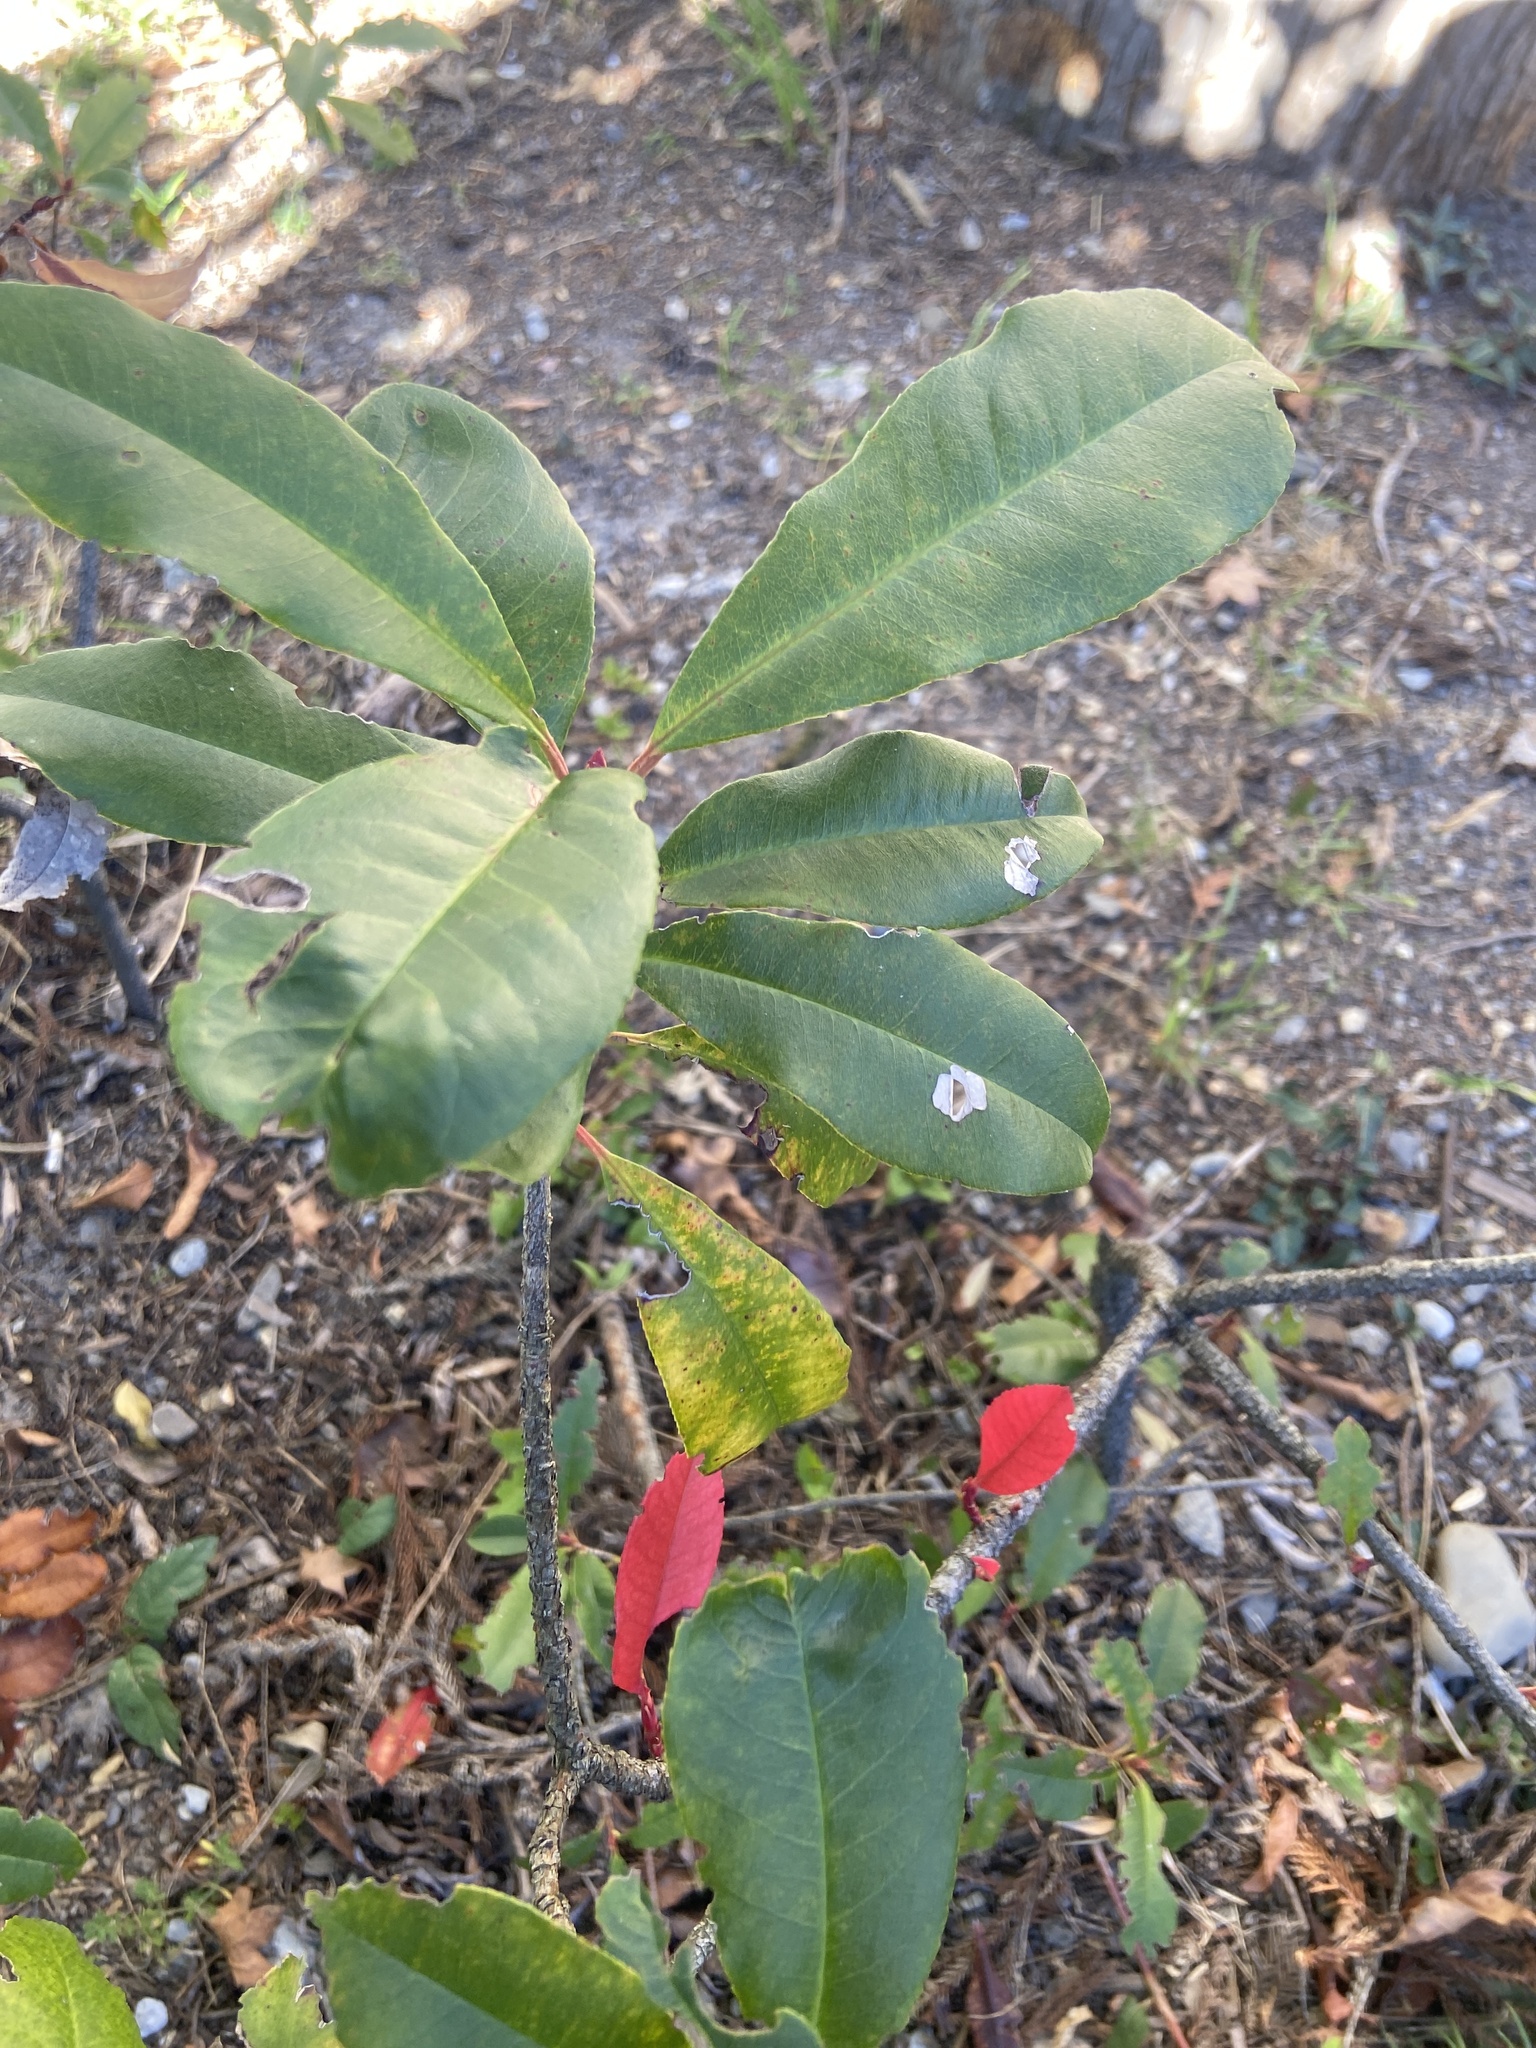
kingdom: Plantae
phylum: Tracheophyta
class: Magnoliopsida
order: Rosales
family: Rosaceae
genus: Photinia
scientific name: Photinia serratifolia
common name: Taiwanese photinia
